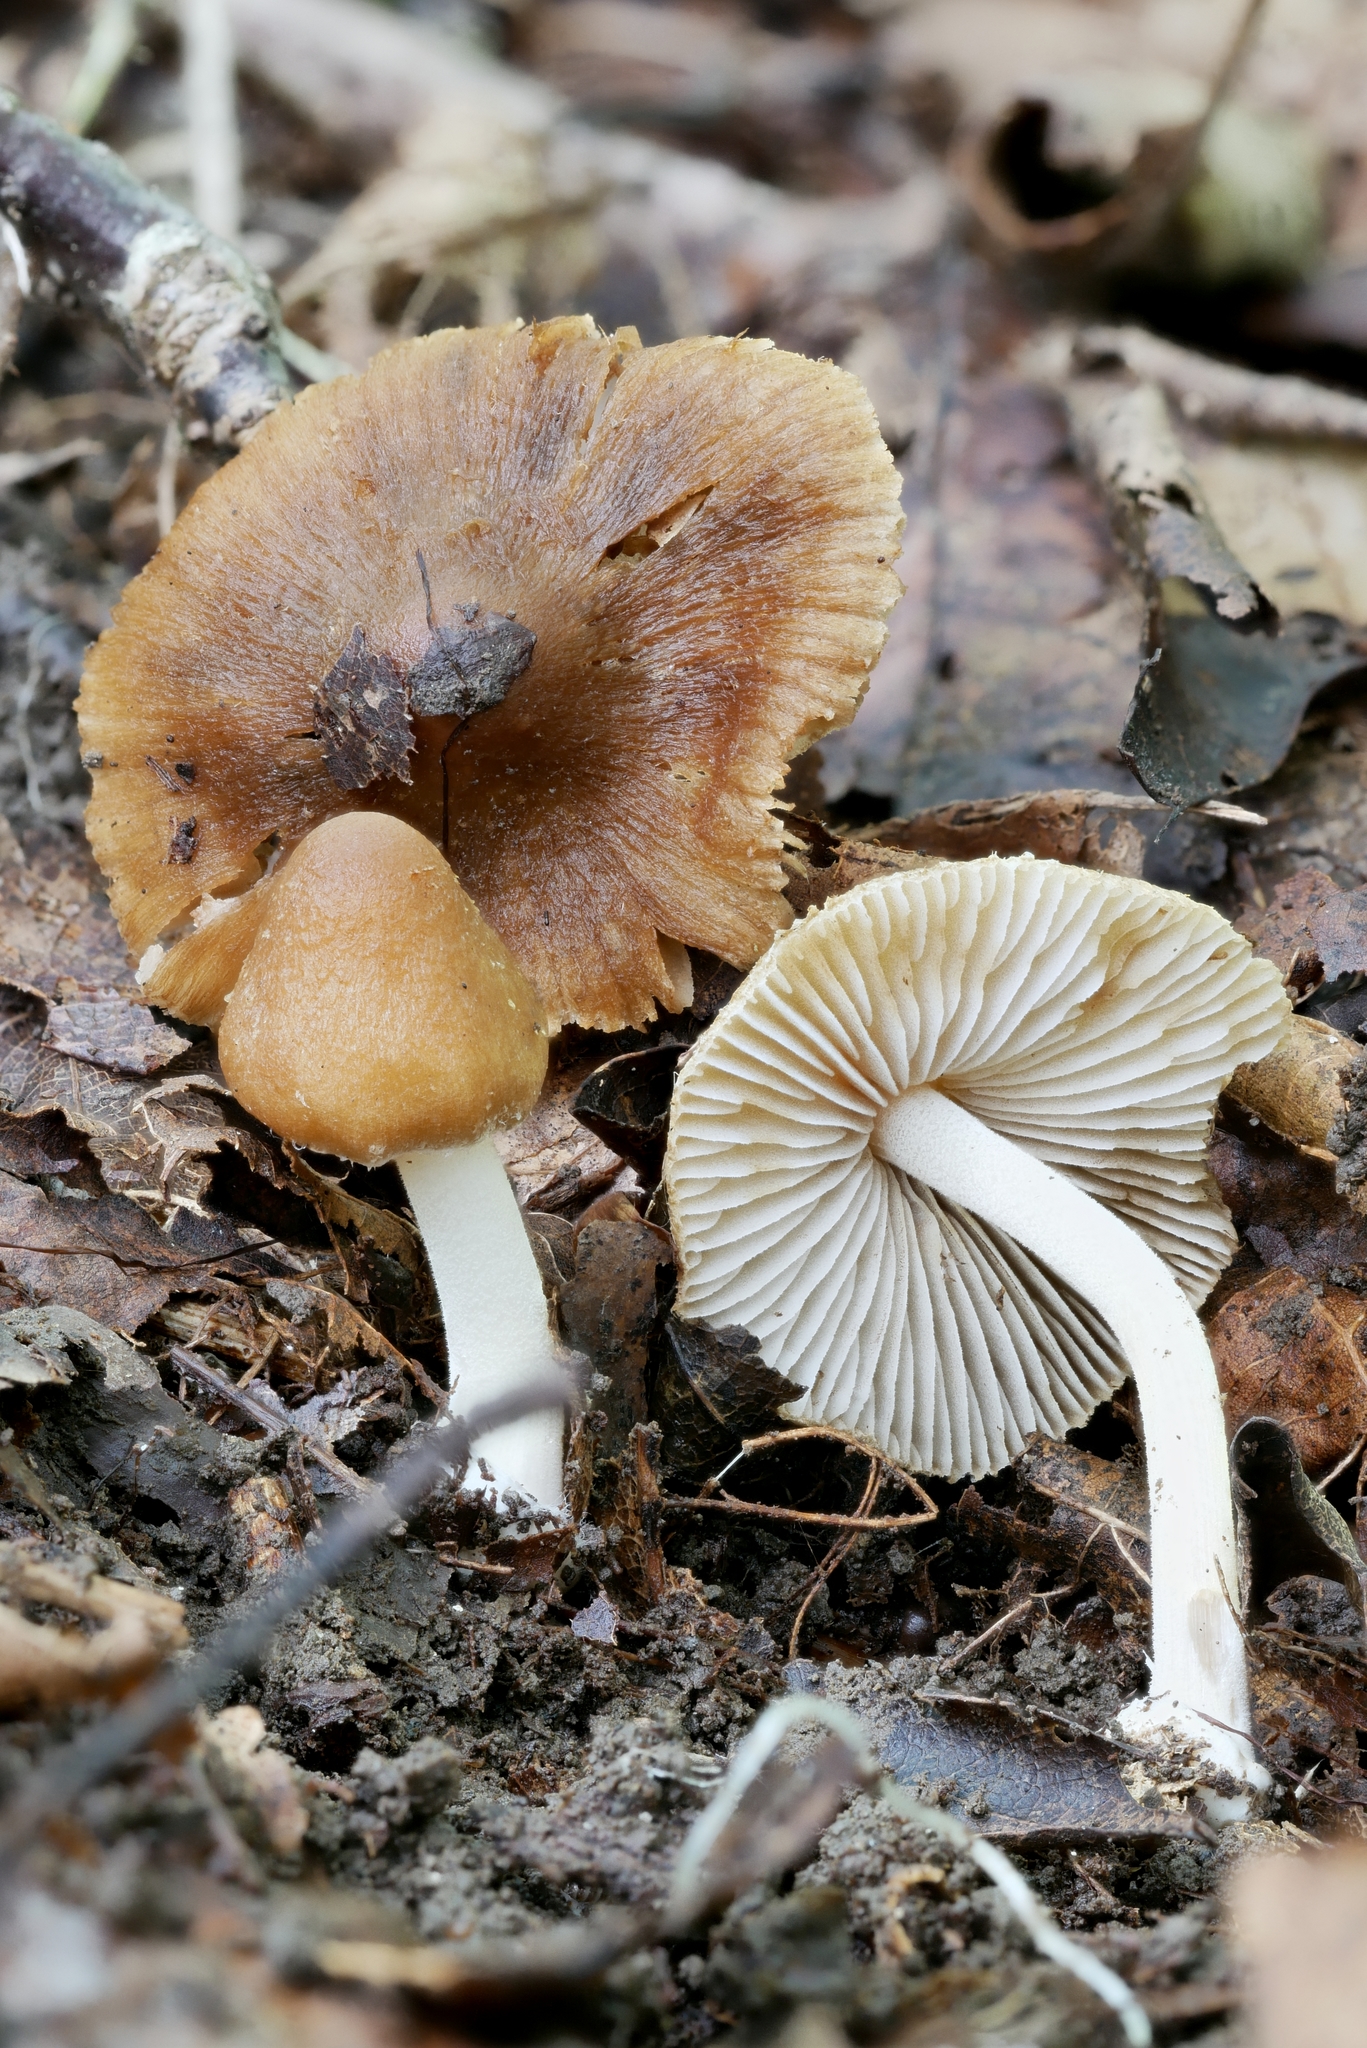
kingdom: Fungi
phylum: Basidiomycota
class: Agaricomycetes
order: Agaricales
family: Inocybaceae
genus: Inocybe
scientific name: Inocybe intricata
